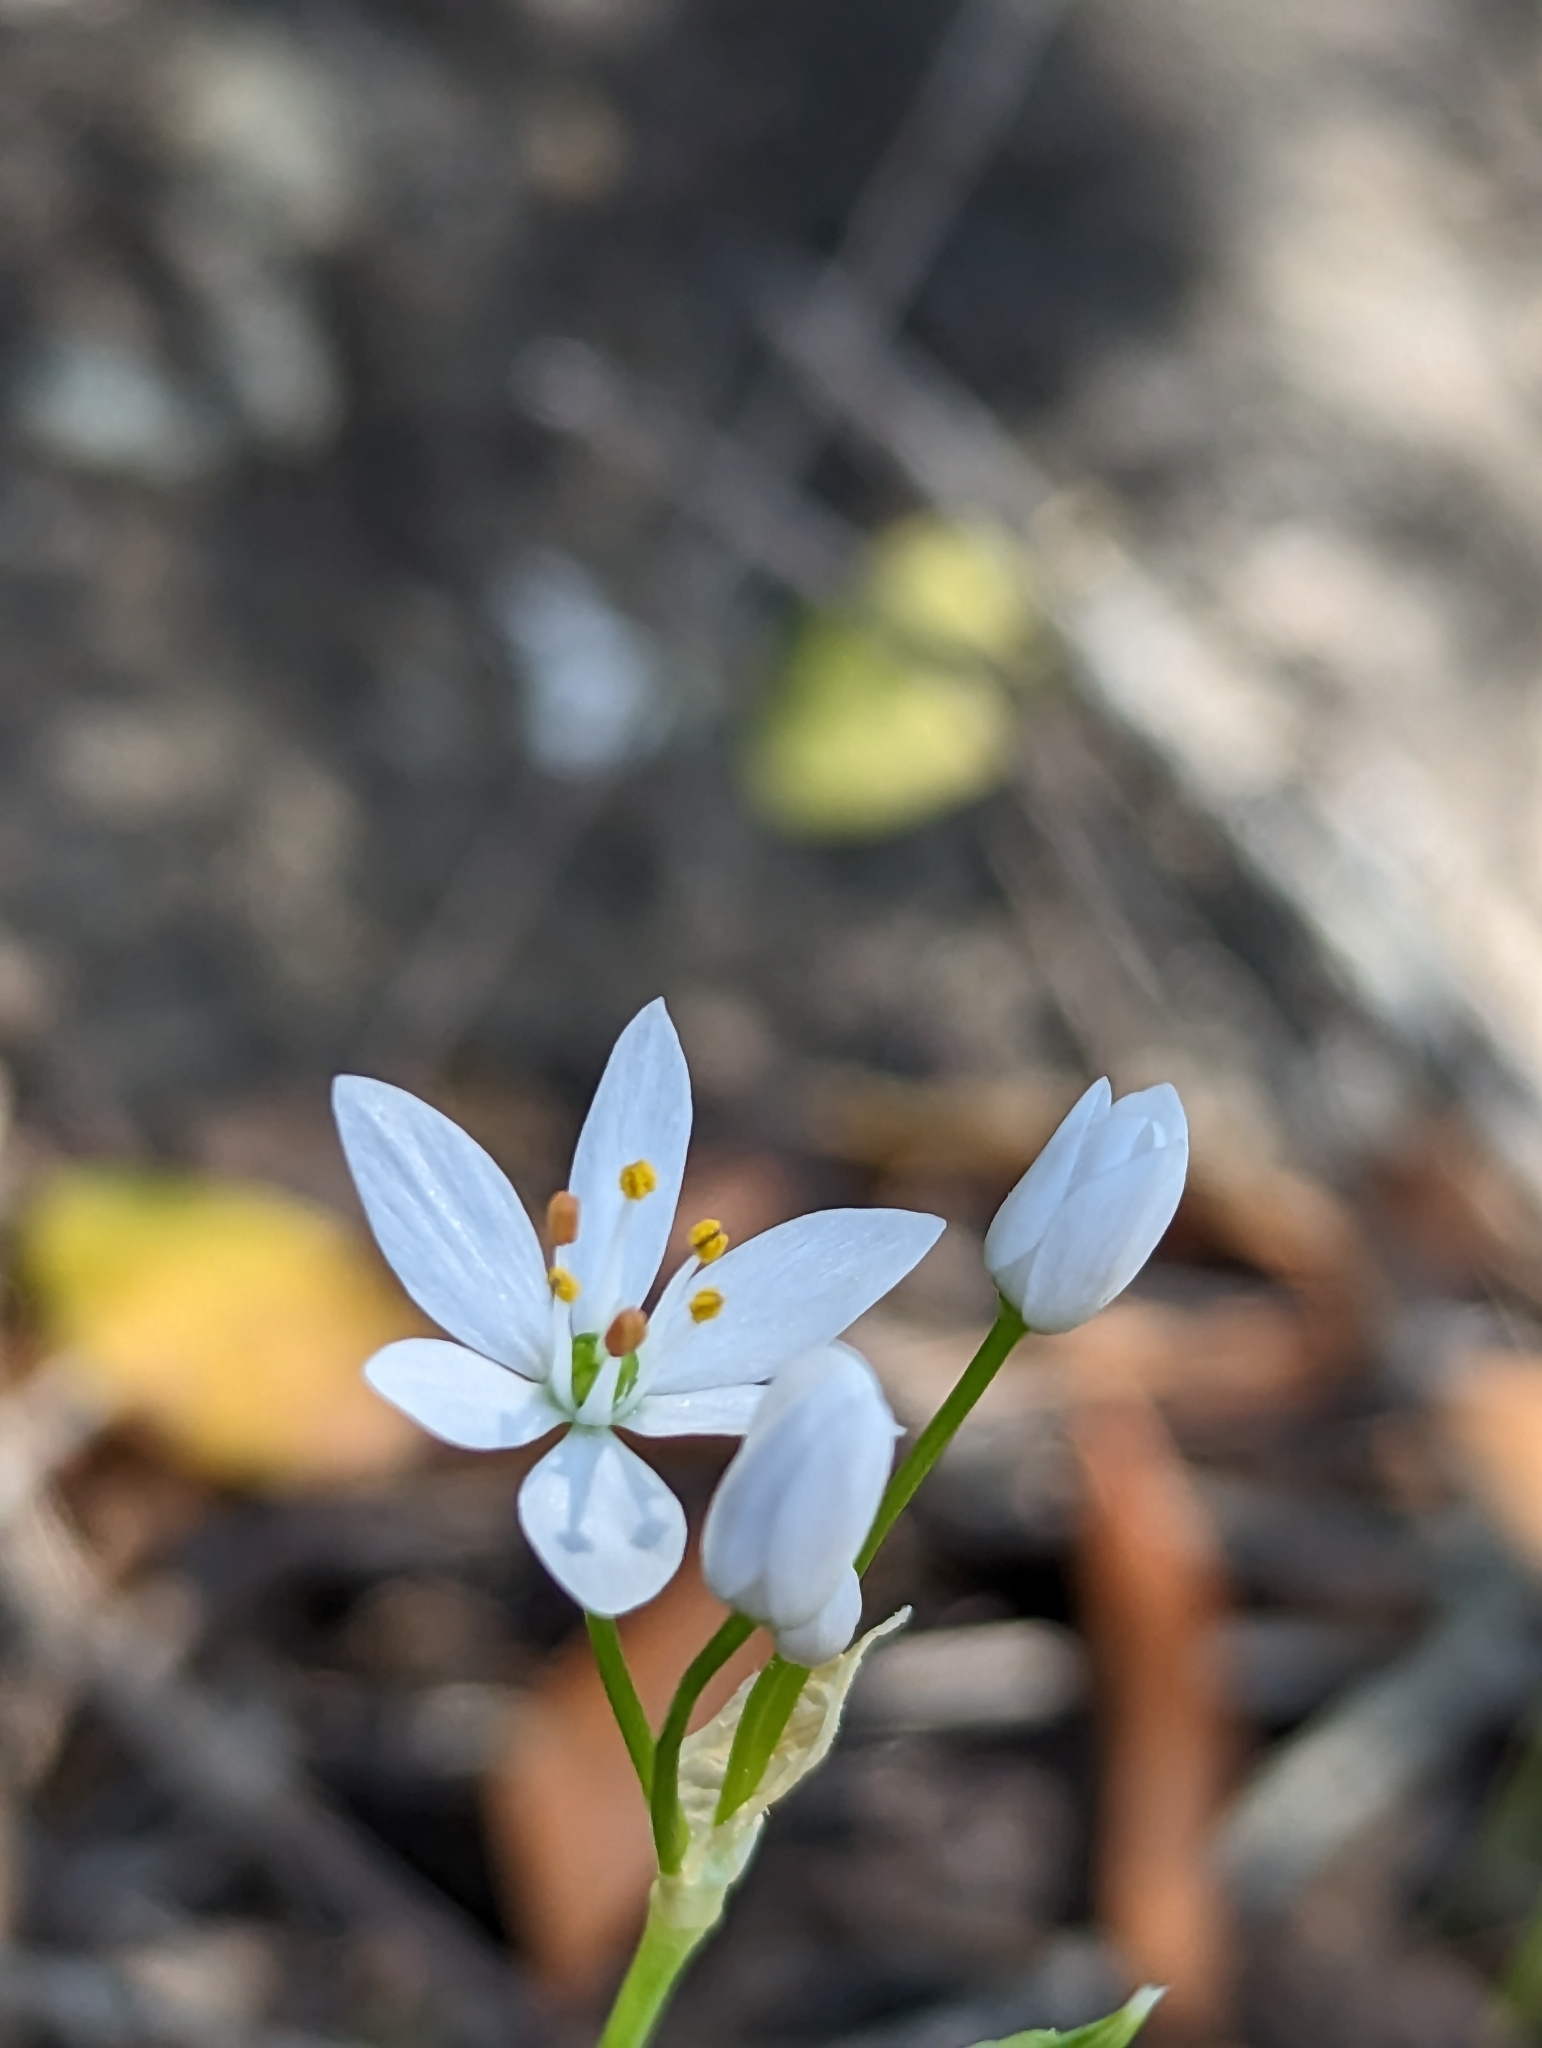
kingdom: Plantae
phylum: Tracheophyta
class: Liliopsida
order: Asparagales
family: Amaryllidaceae
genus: Allium
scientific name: Allium subhirsutum
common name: Hairy garlic
